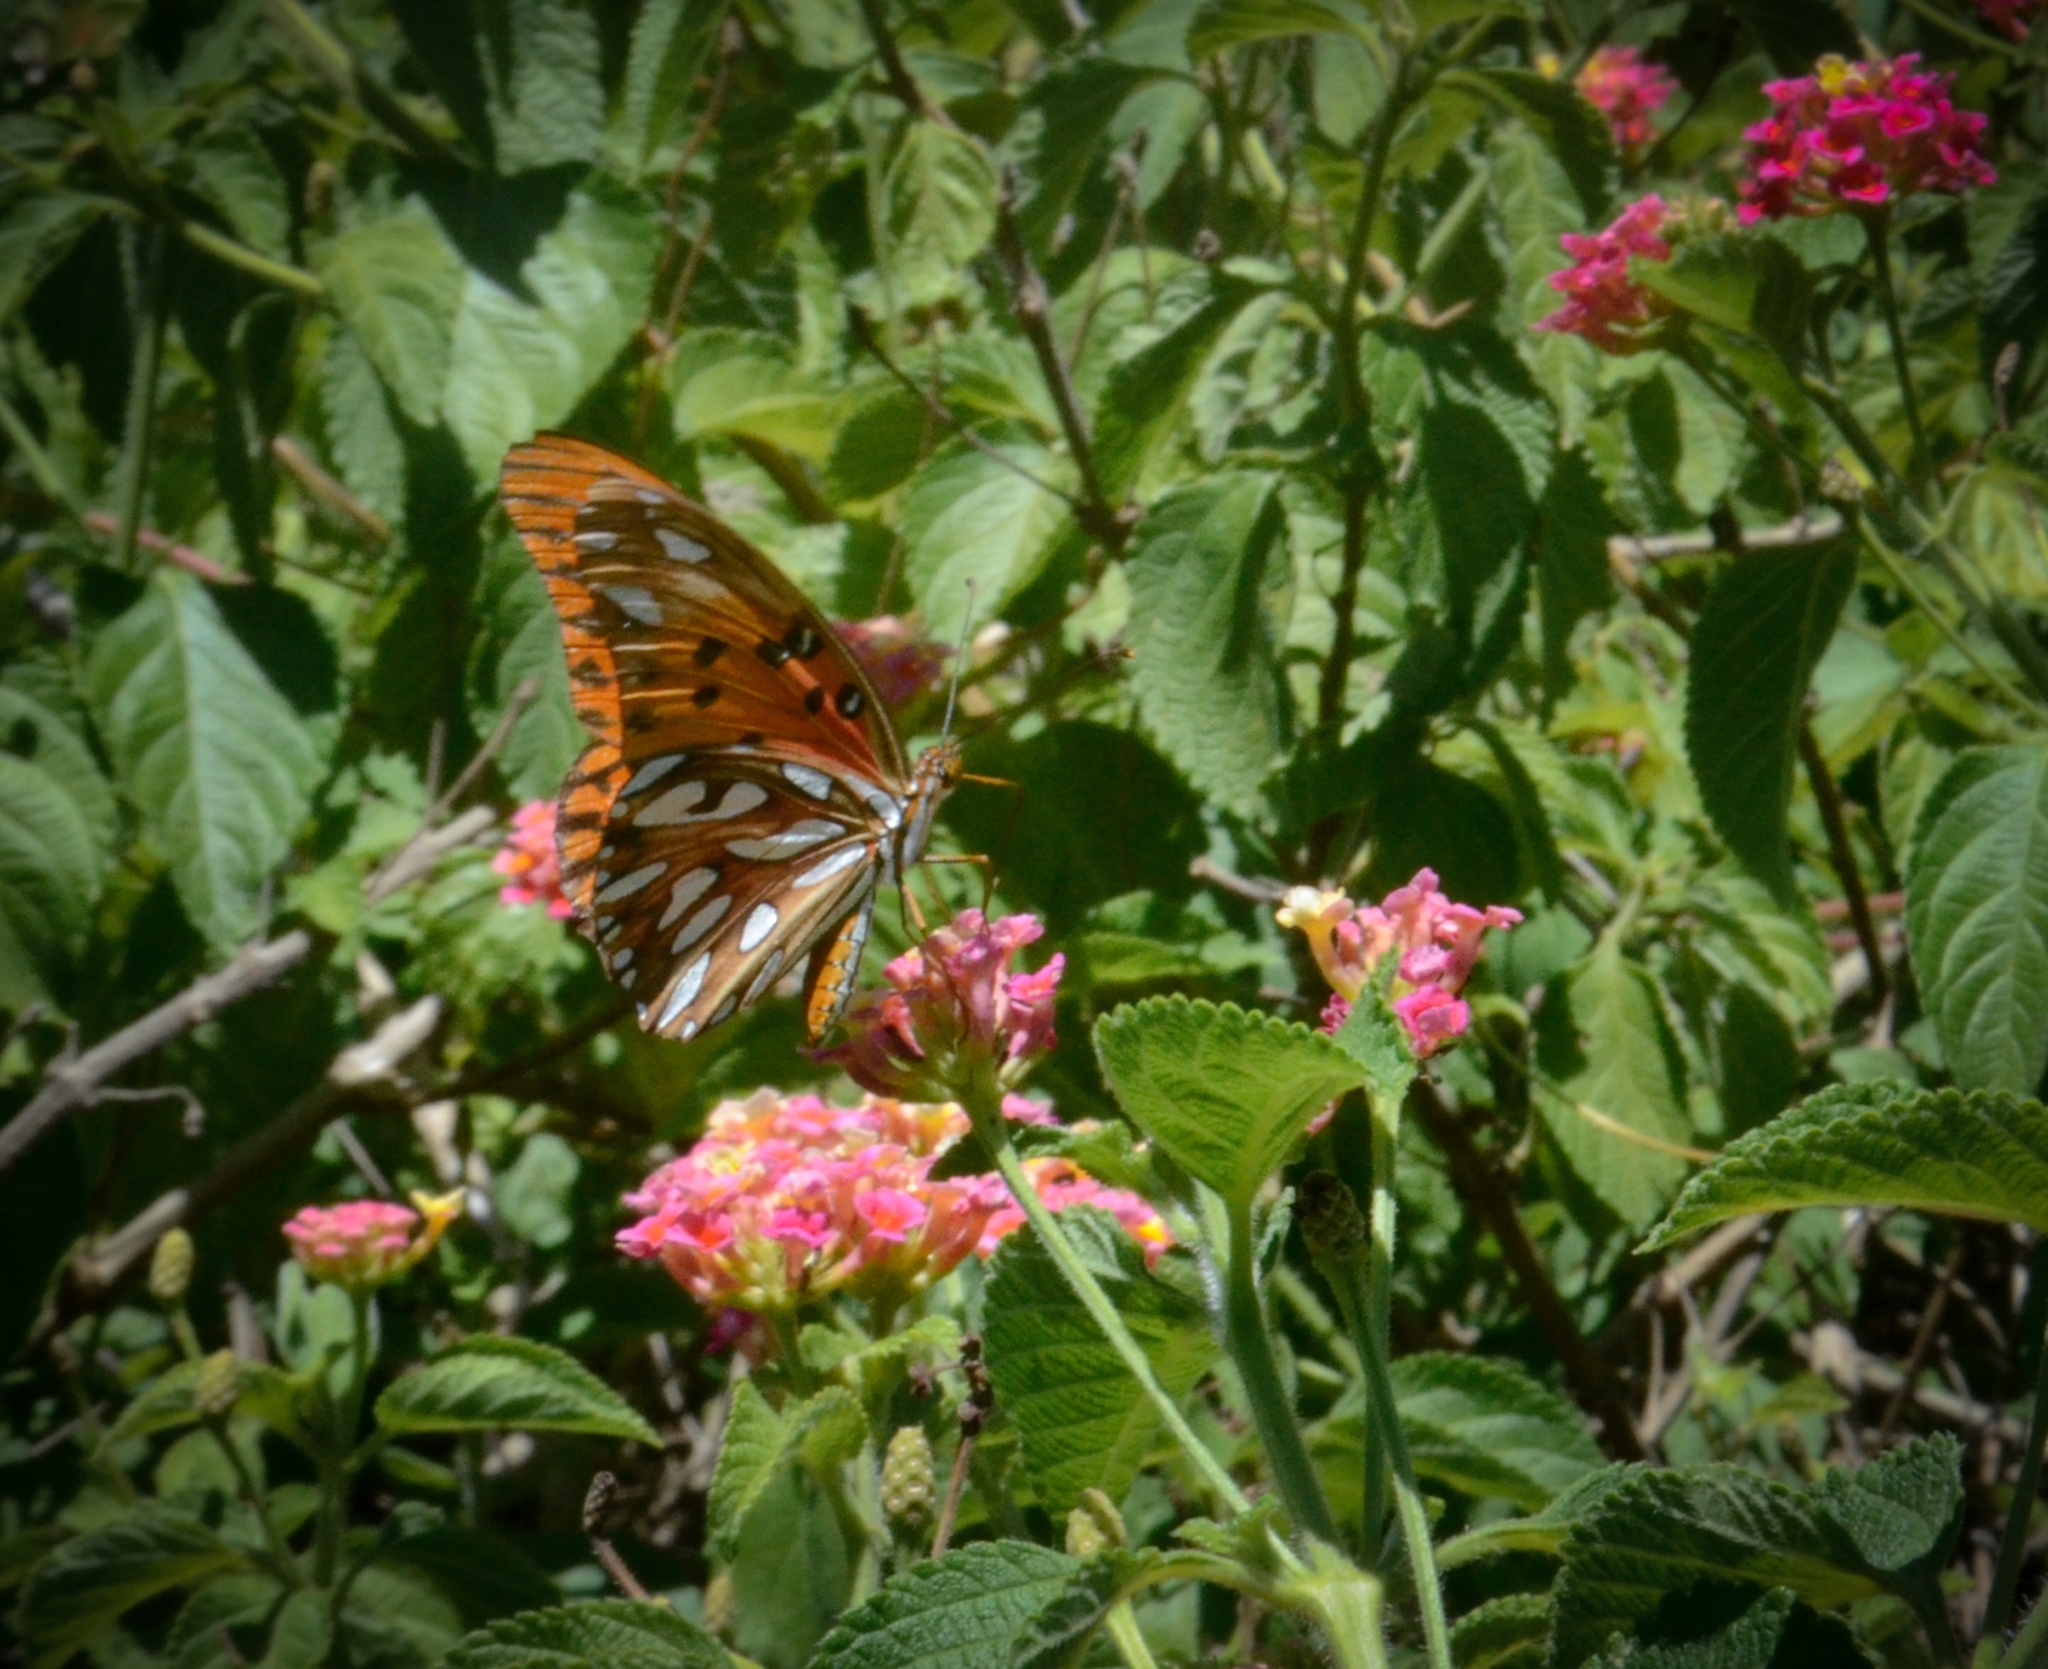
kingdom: Animalia
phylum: Arthropoda
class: Insecta
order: Lepidoptera
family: Nymphalidae
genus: Dione
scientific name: Dione vanillae
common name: Gulf fritillary
